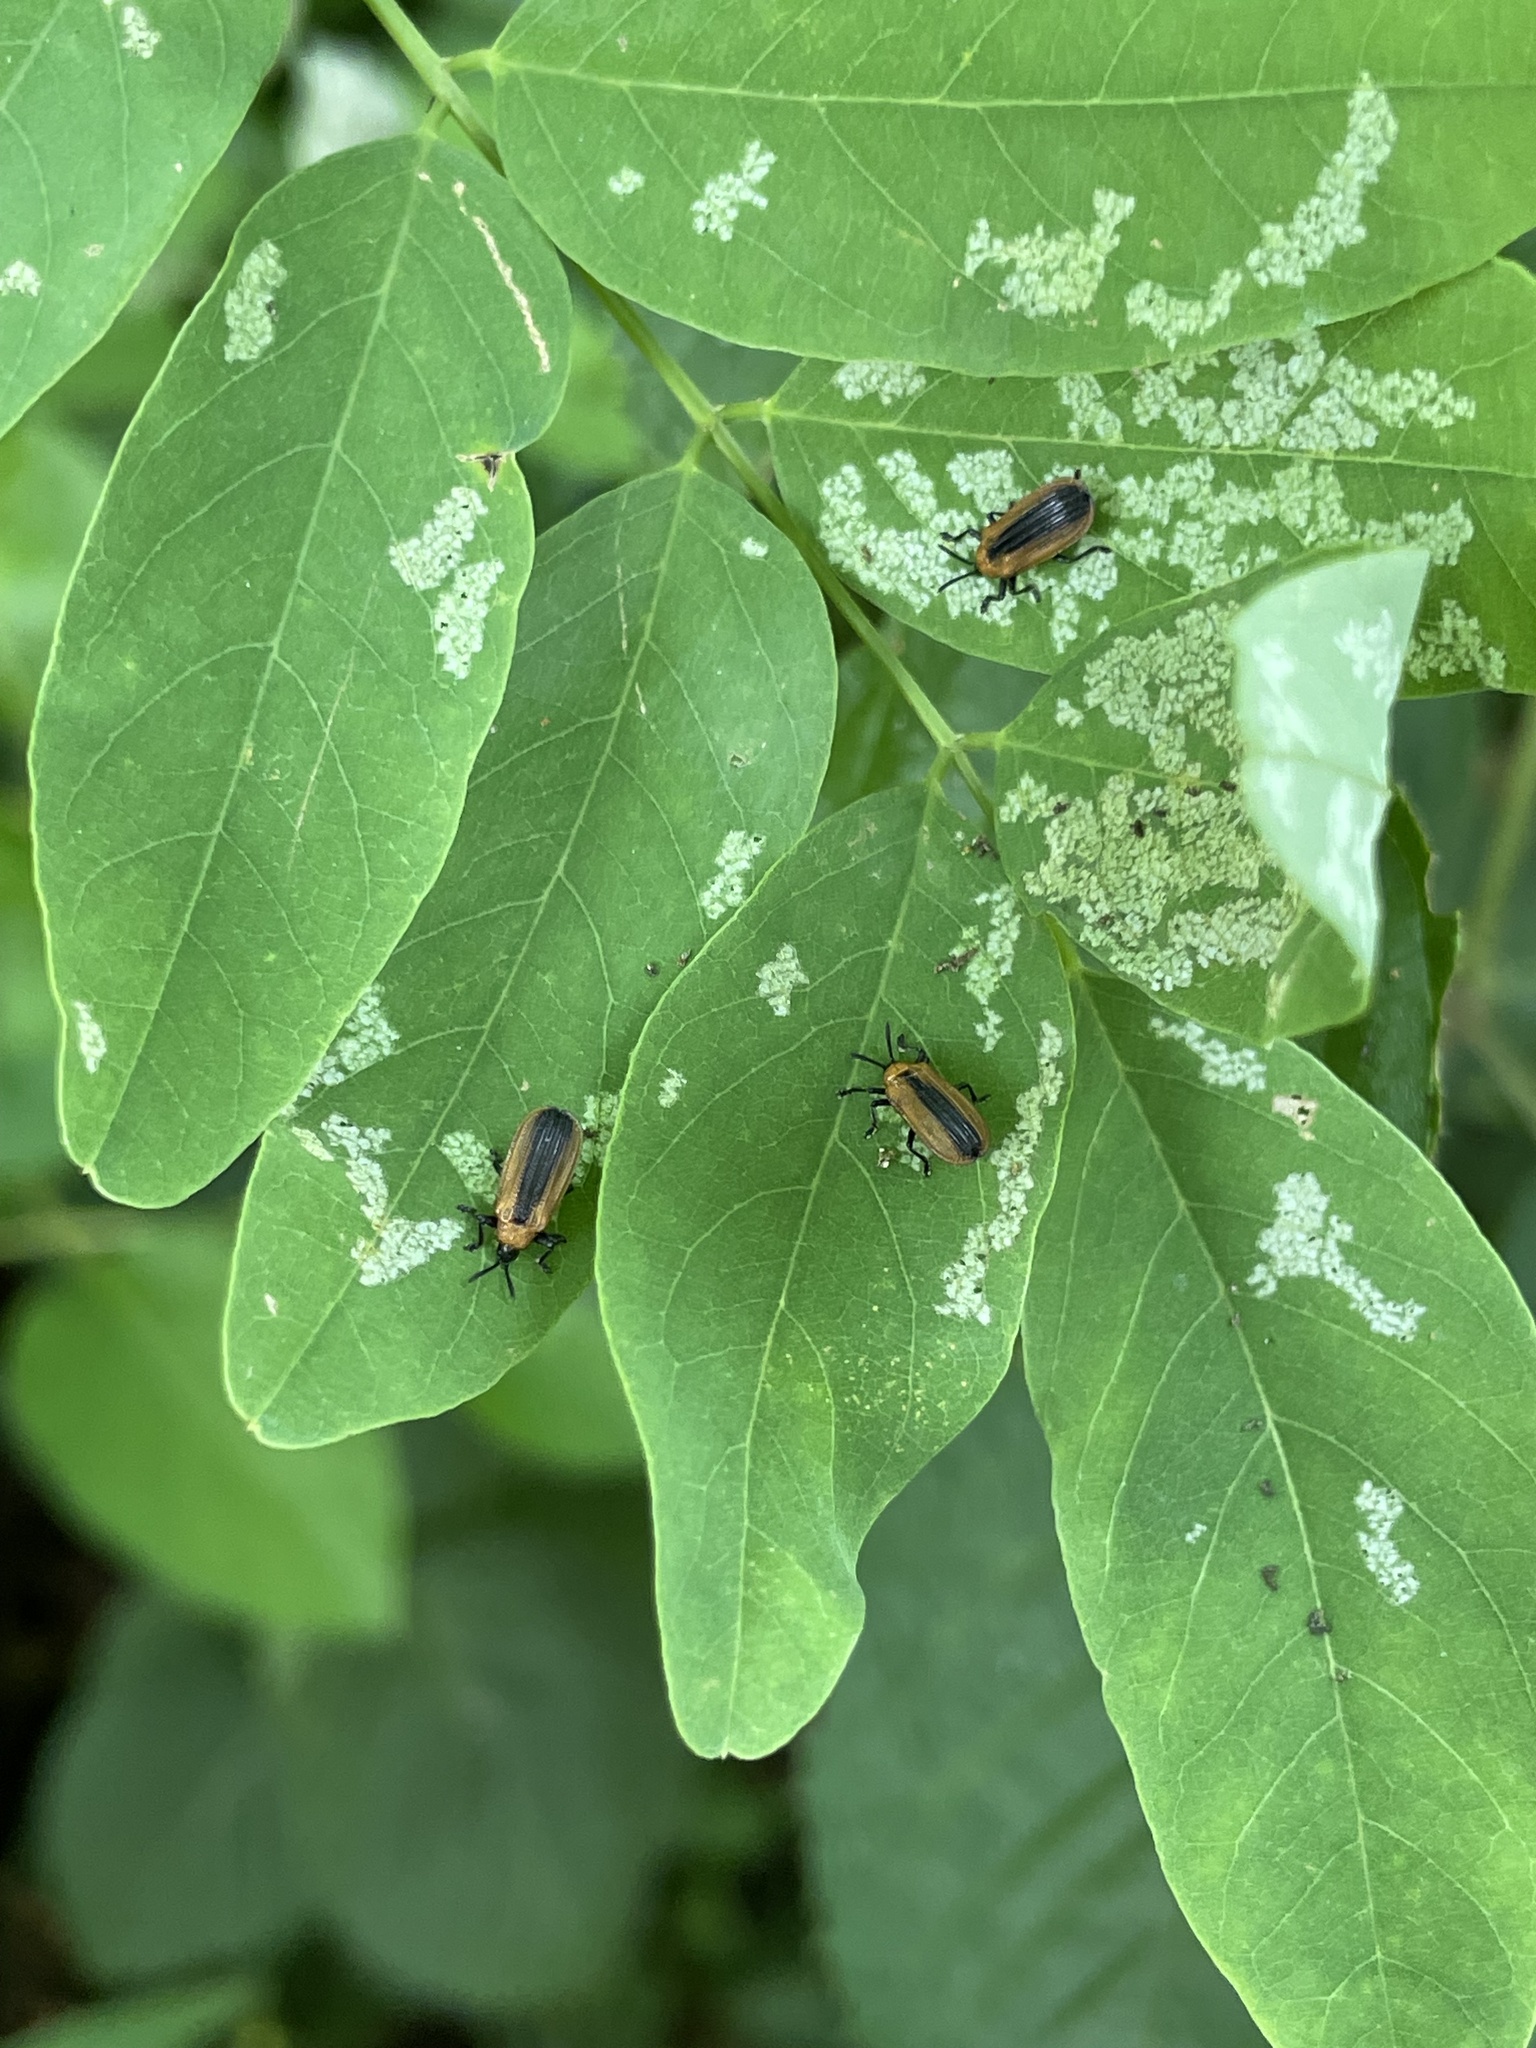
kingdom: Animalia
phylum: Arthropoda
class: Insecta
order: Coleoptera
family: Chrysomelidae
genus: Odontota
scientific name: Odontota dorsalis
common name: Locust leaf-miner beetle
